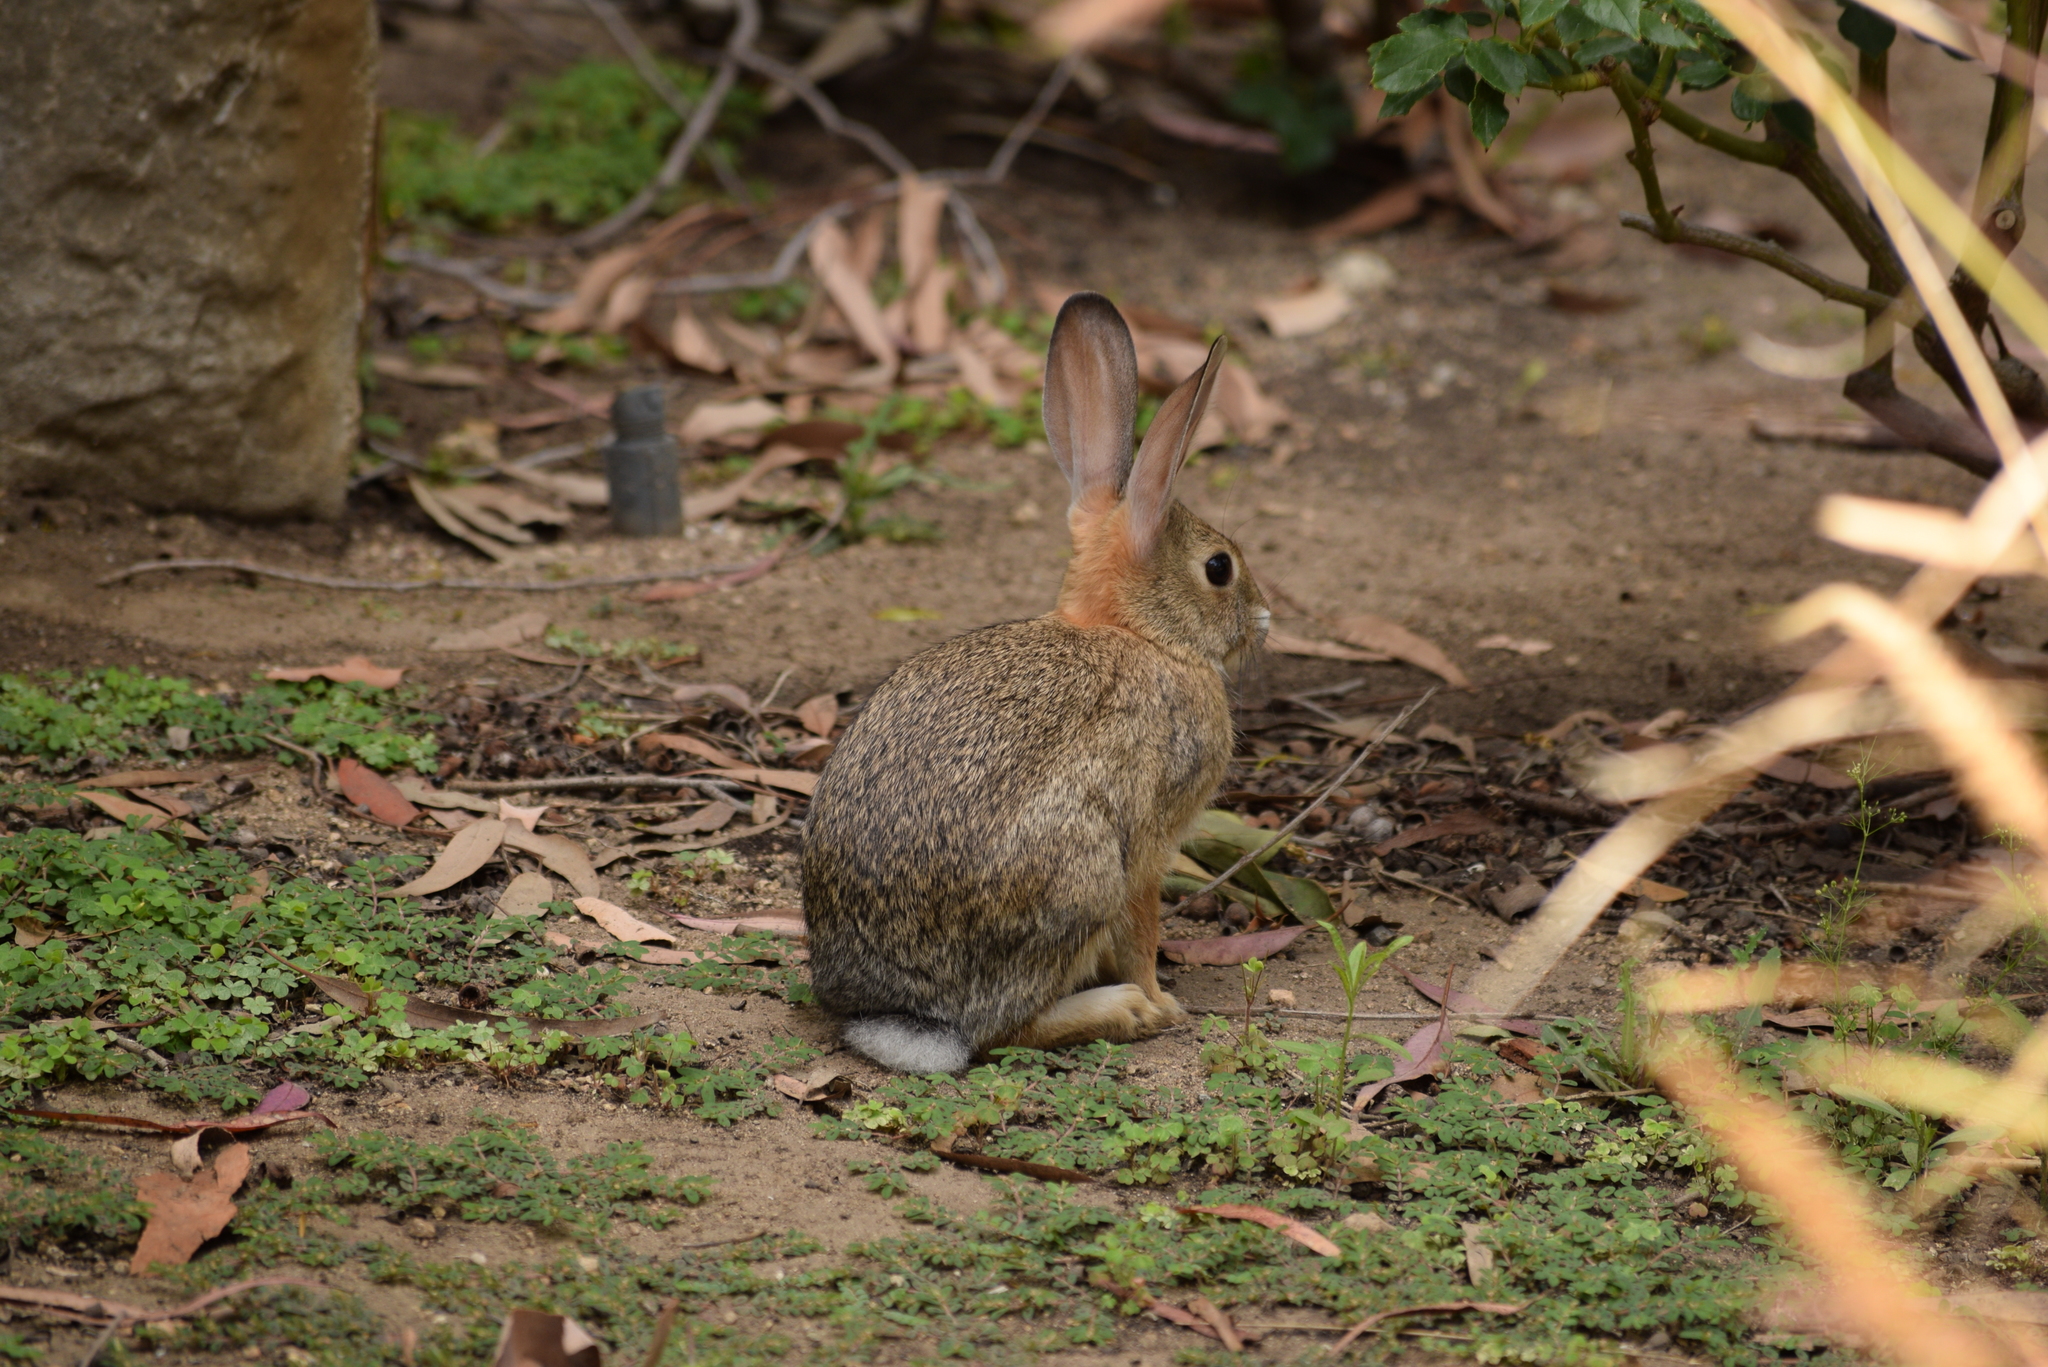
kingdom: Animalia
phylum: Chordata
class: Mammalia
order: Lagomorpha
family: Leporidae
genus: Sylvilagus
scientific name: Sylvilagus audubonii
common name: Desert cottontail
